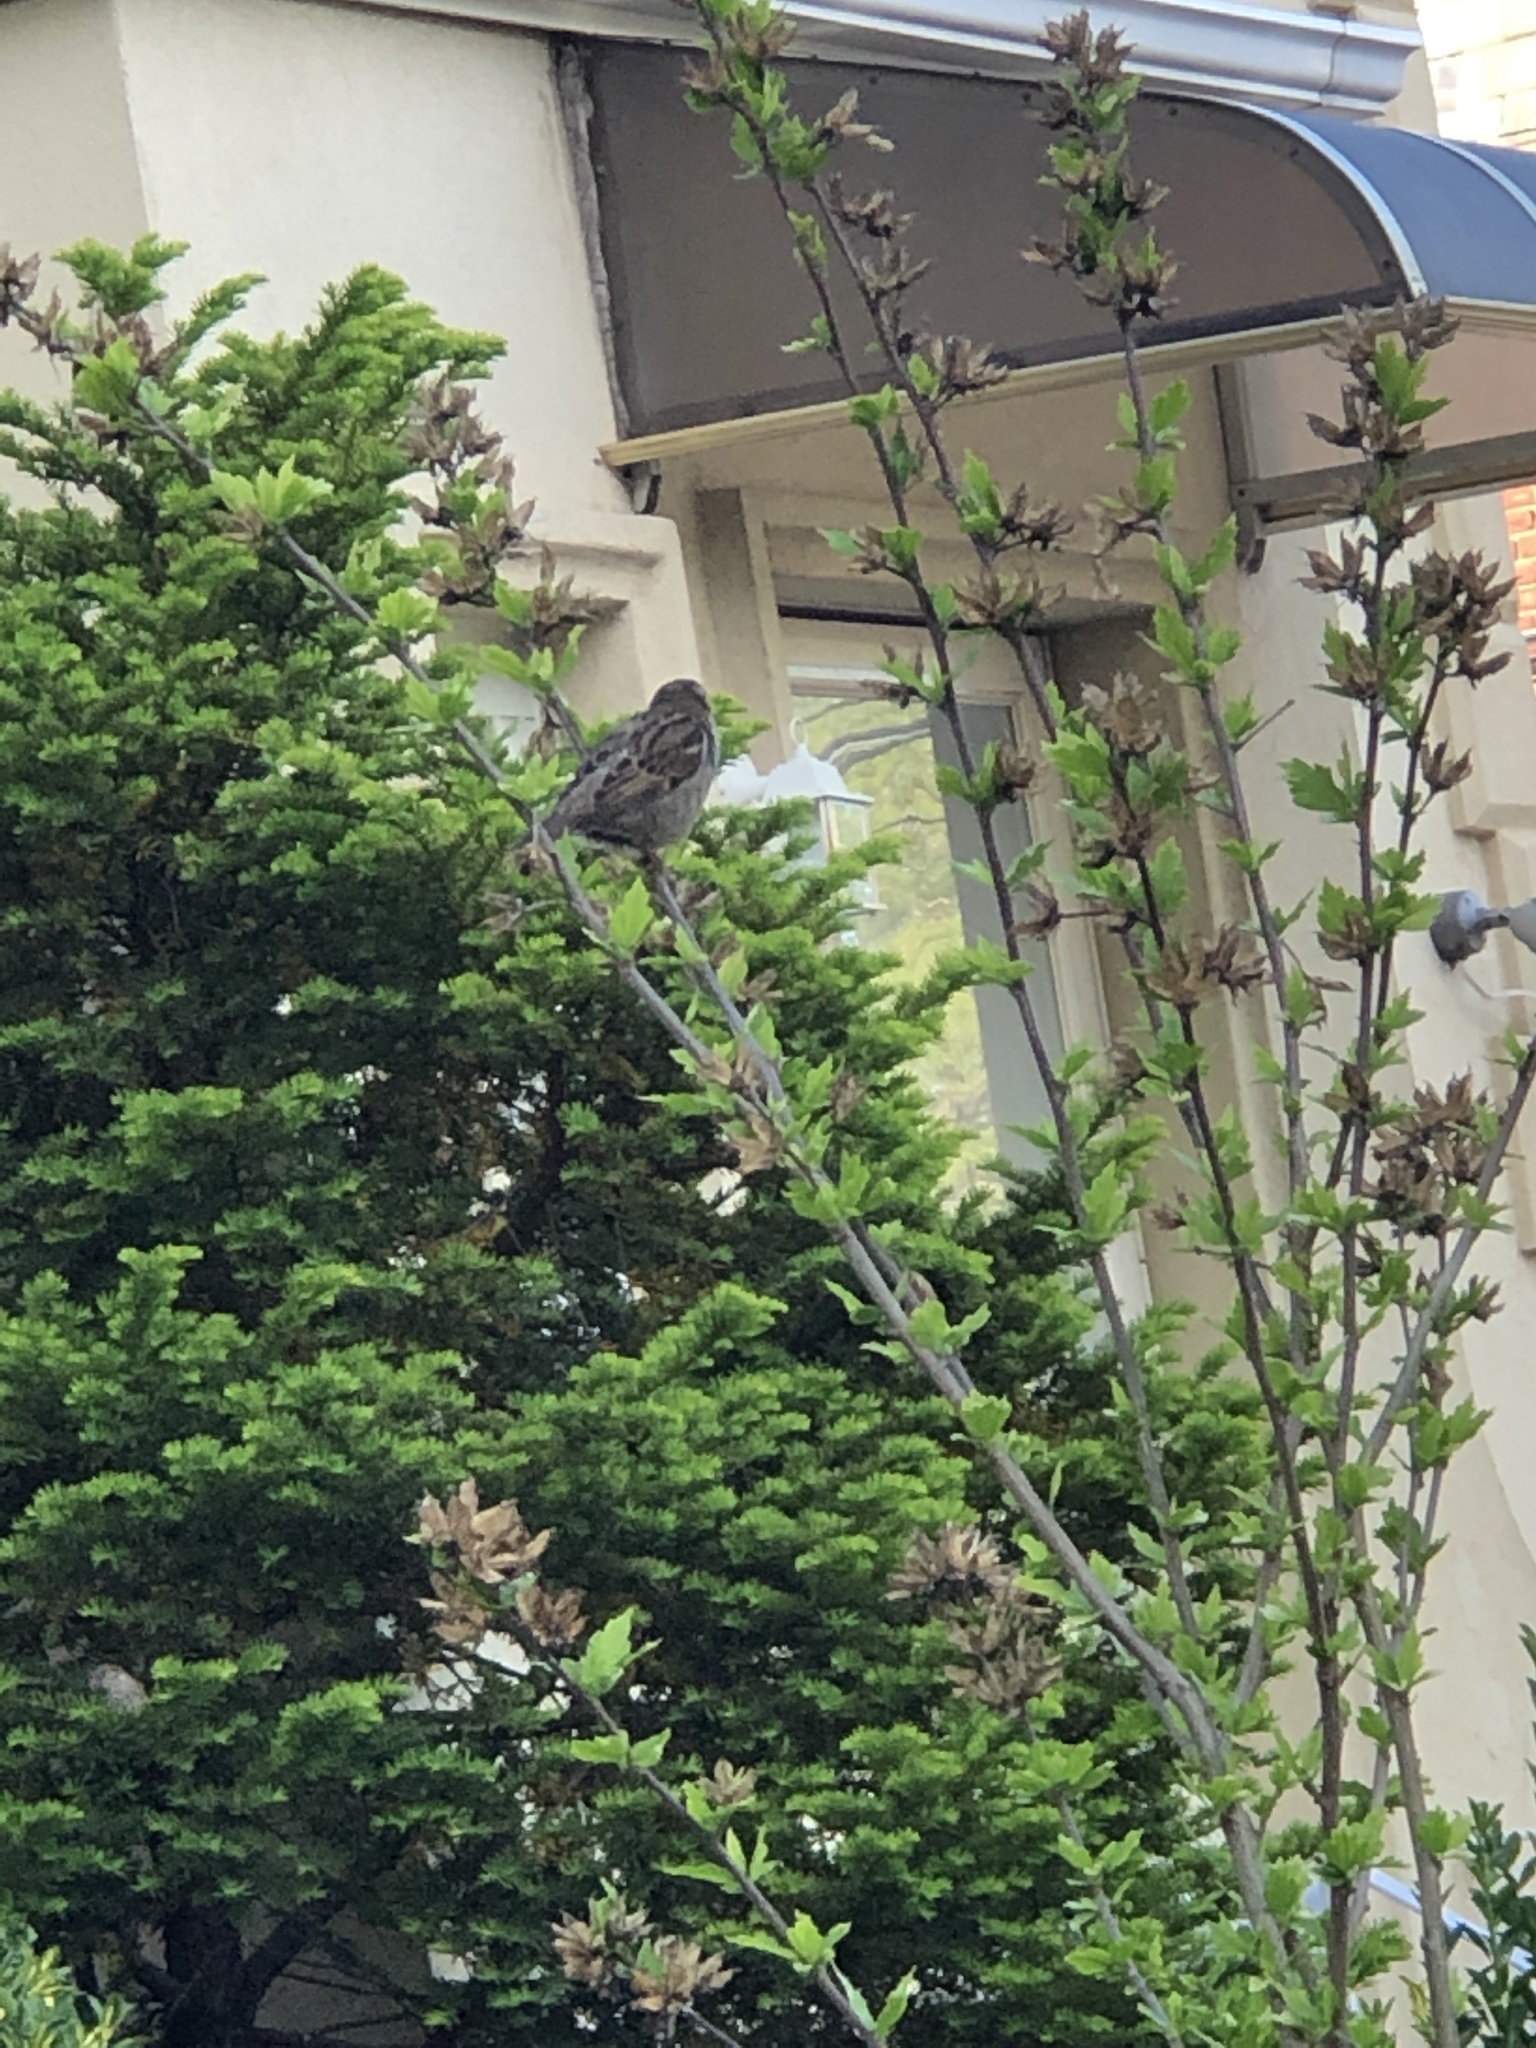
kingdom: Animalia
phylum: Chordata
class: Aves
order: Passeriformes
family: Passeridae
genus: Passer
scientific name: Passer domesticus
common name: House sparrow
